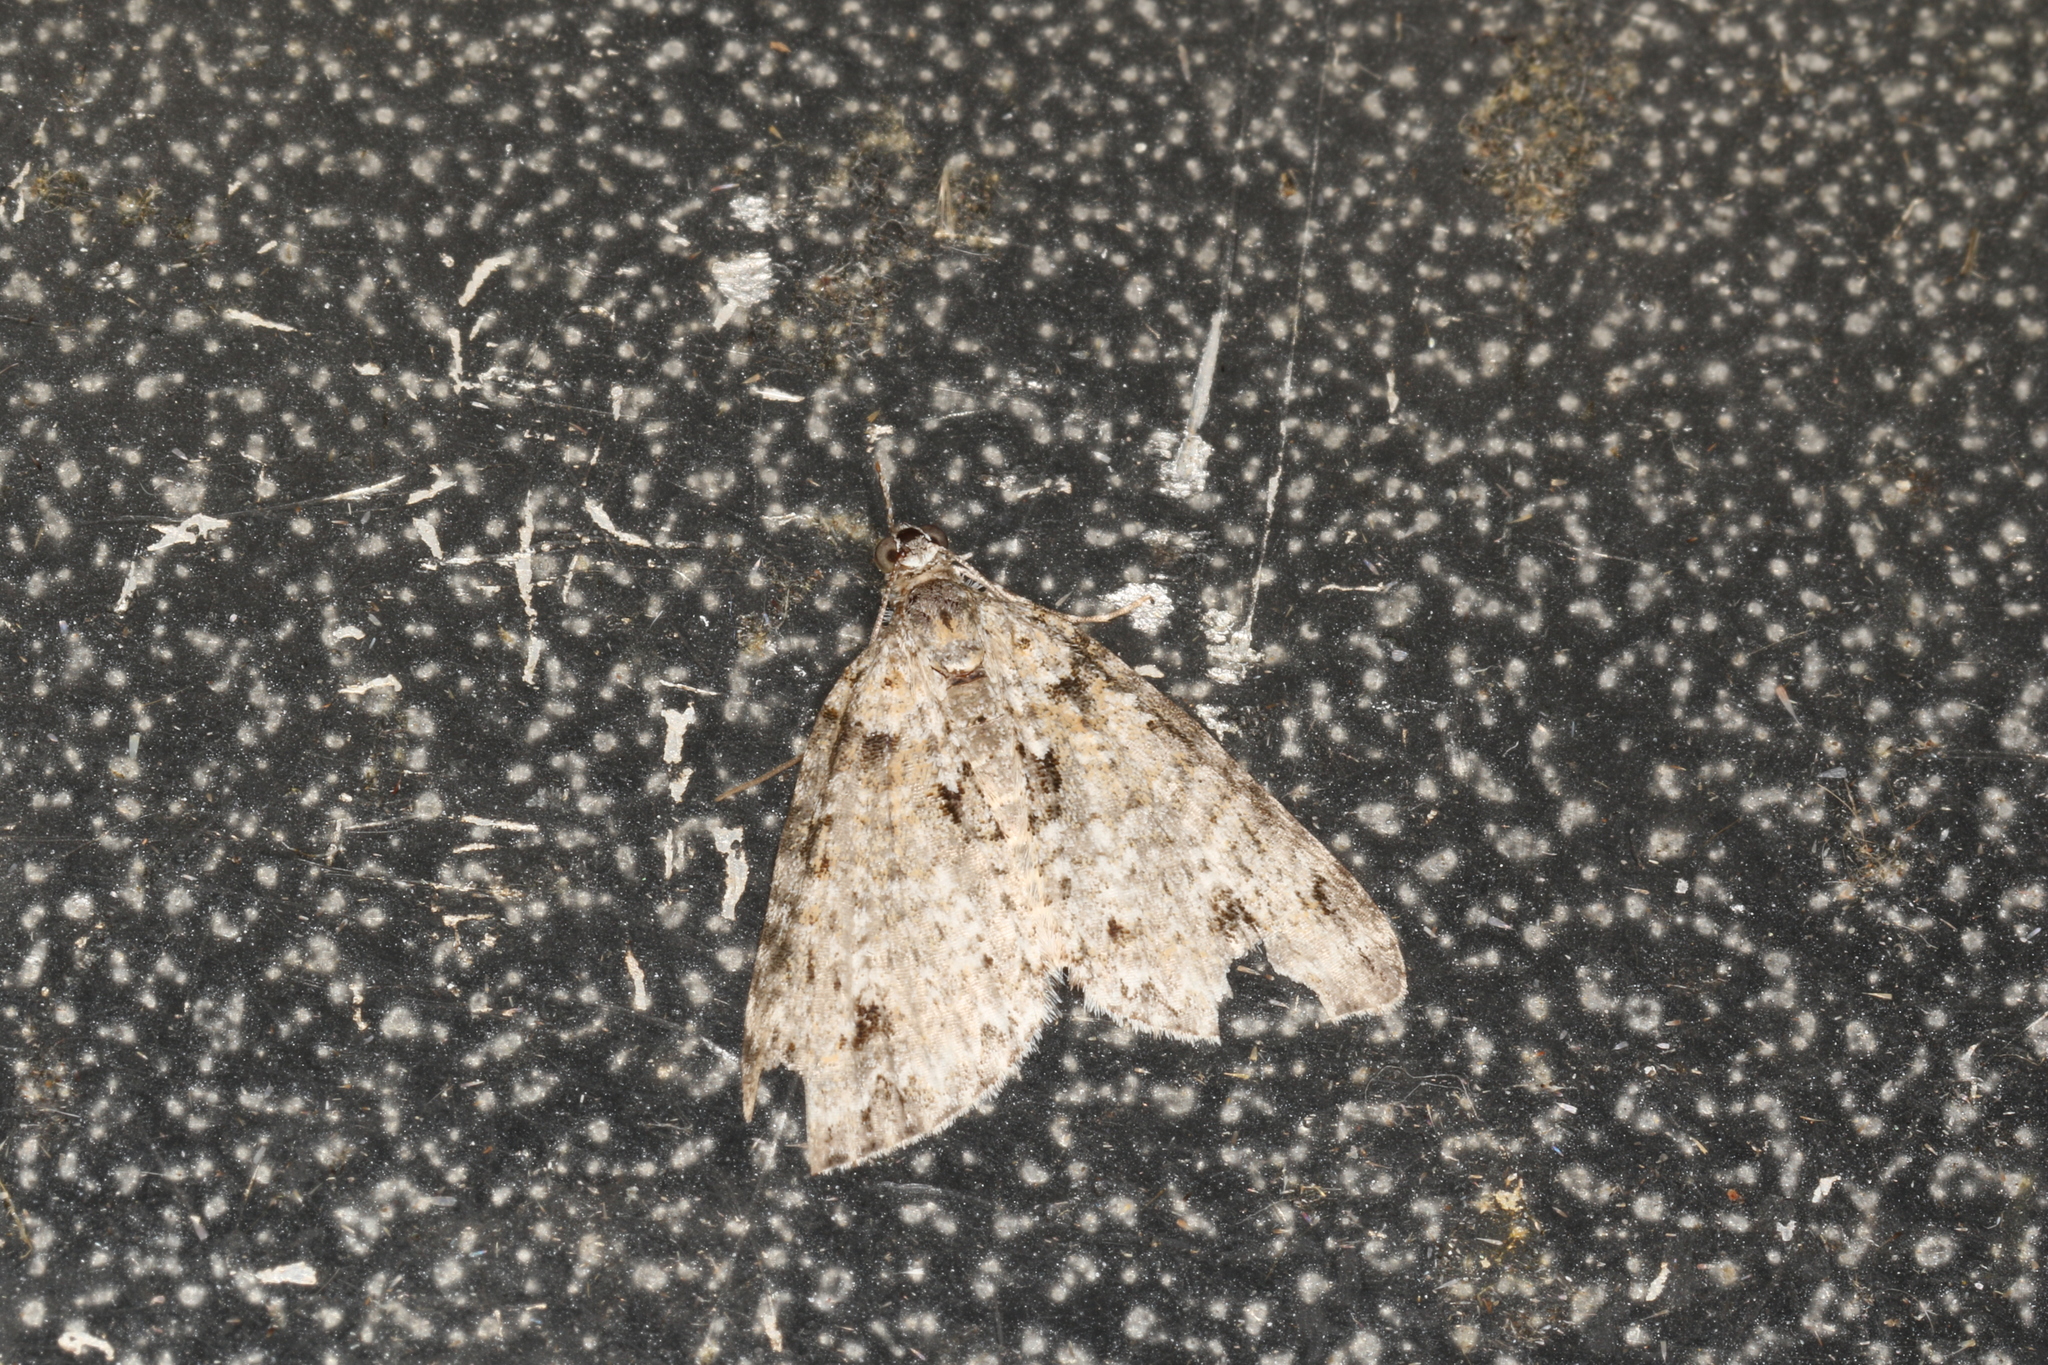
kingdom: Animalia
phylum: Arthropoda
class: Insecta
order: Lepidoptera
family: Geometridae
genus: Microdes
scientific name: Microdes villosata
